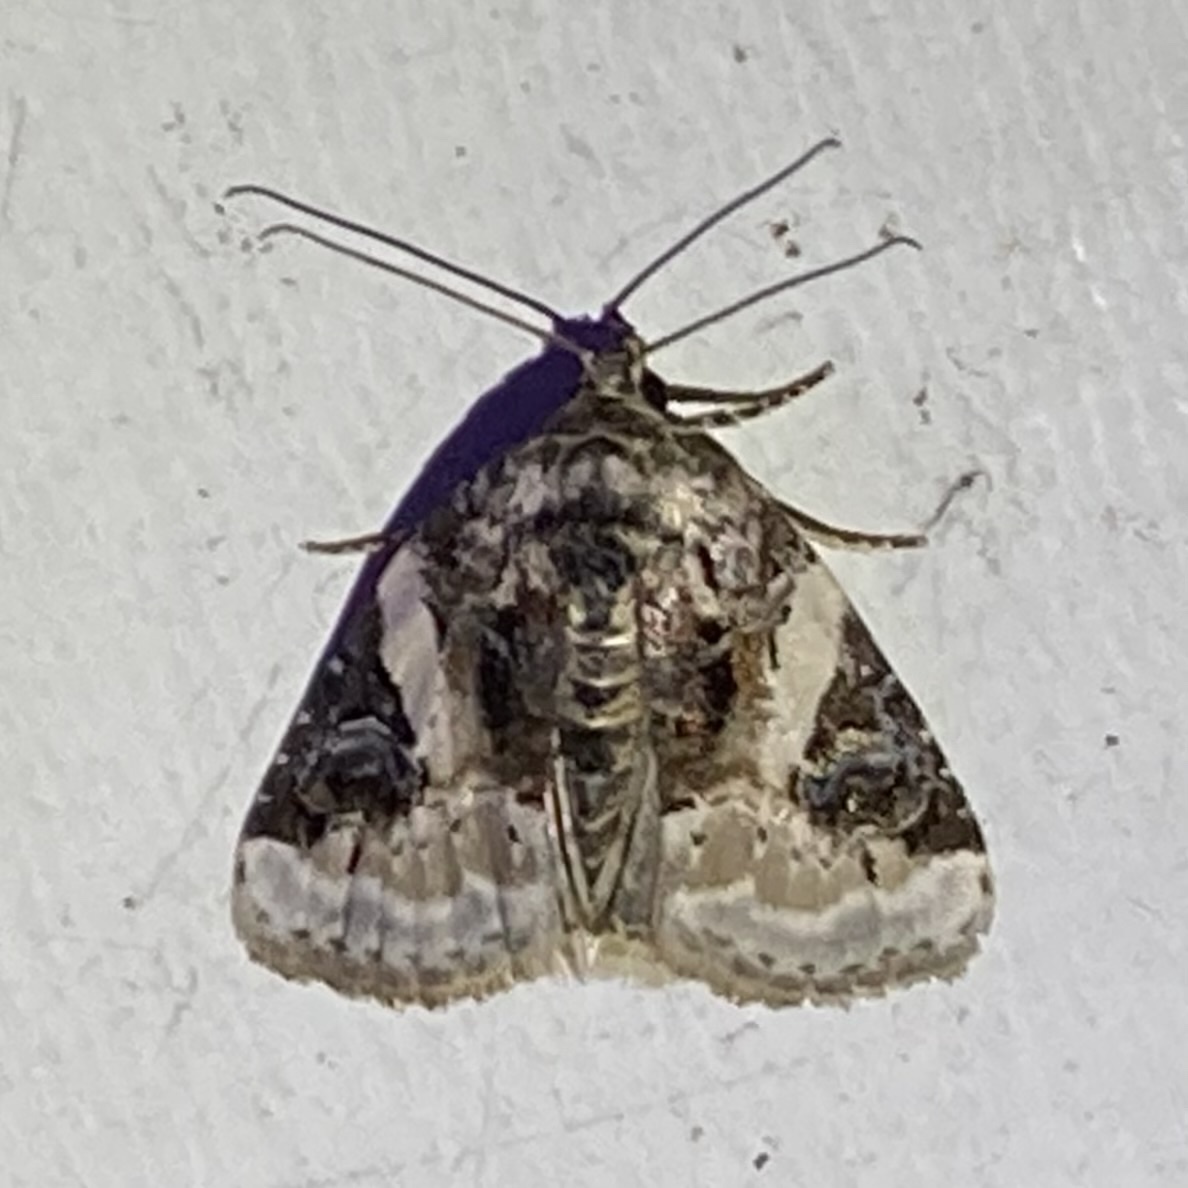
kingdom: Animalia
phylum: Arthropoda
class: Insecta
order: Lepidoptera
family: Noctuidae
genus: Pseudeustrotia
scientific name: Pseudeustrotia carneola
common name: Pink-barred lithacodia moth
